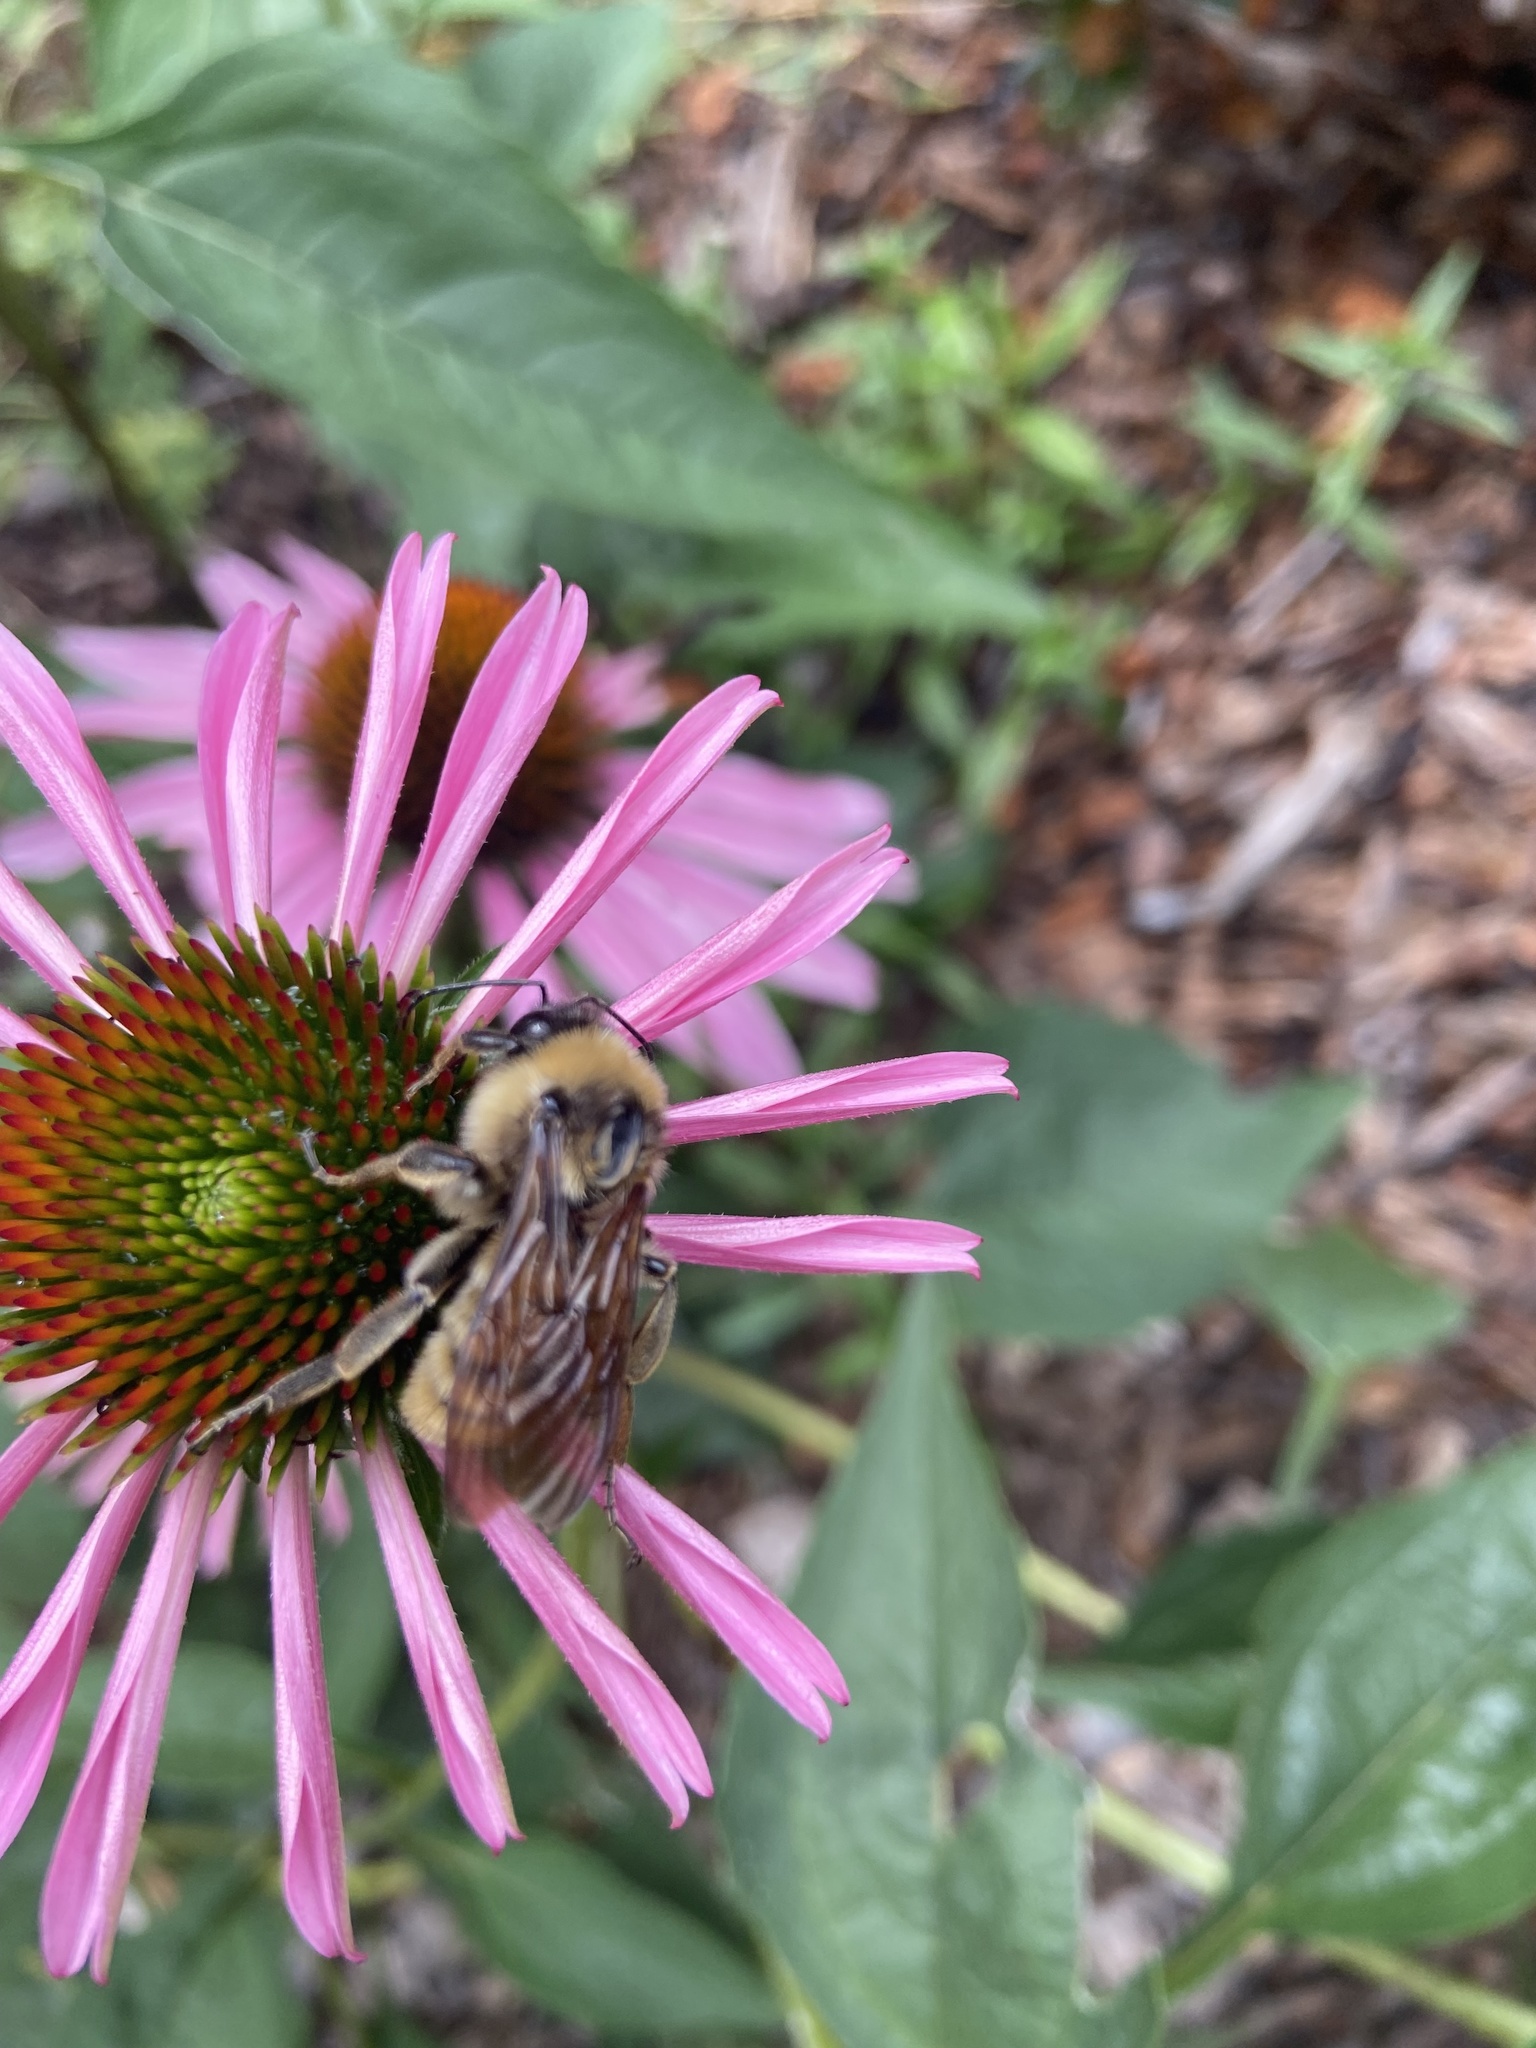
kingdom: Animalia
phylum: Arthropoda
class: Insecta
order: Hymenoptera
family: Apidae
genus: Bombus
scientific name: Bombus pensylvanicus
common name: Bumble bee
